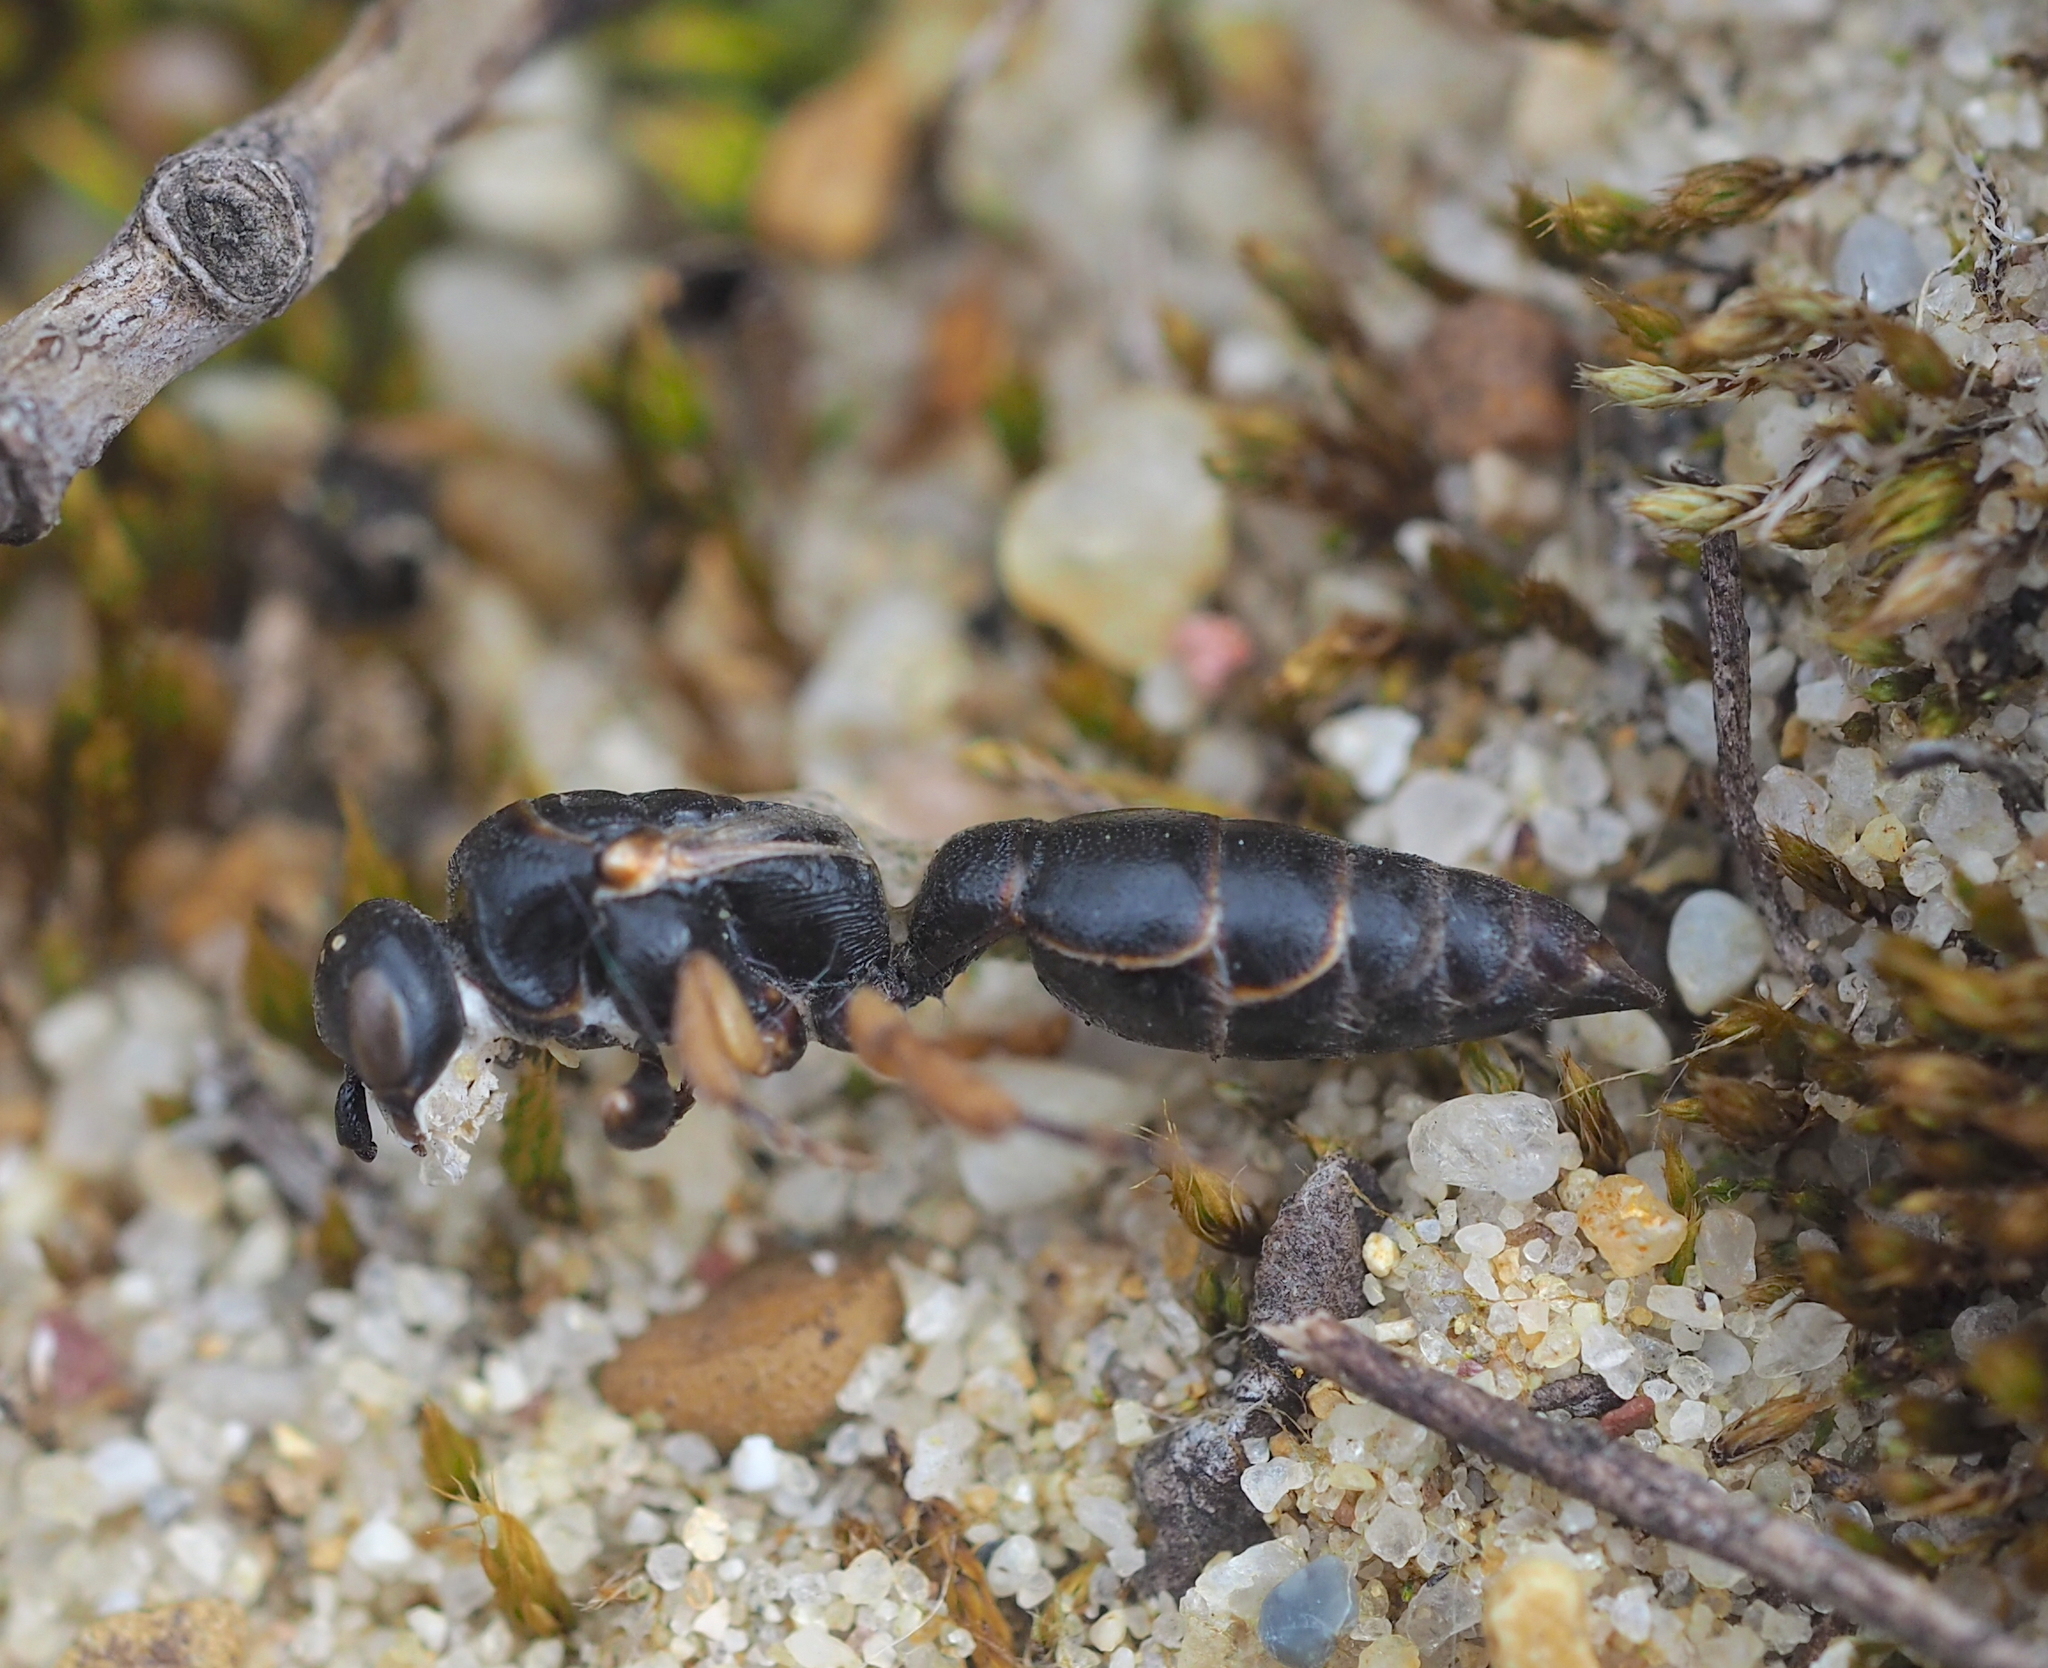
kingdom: Animalia
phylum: Arthropoda
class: Insecta
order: Hymenoptera
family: Tiphiidae
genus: Tiphia
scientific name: Tiphia
